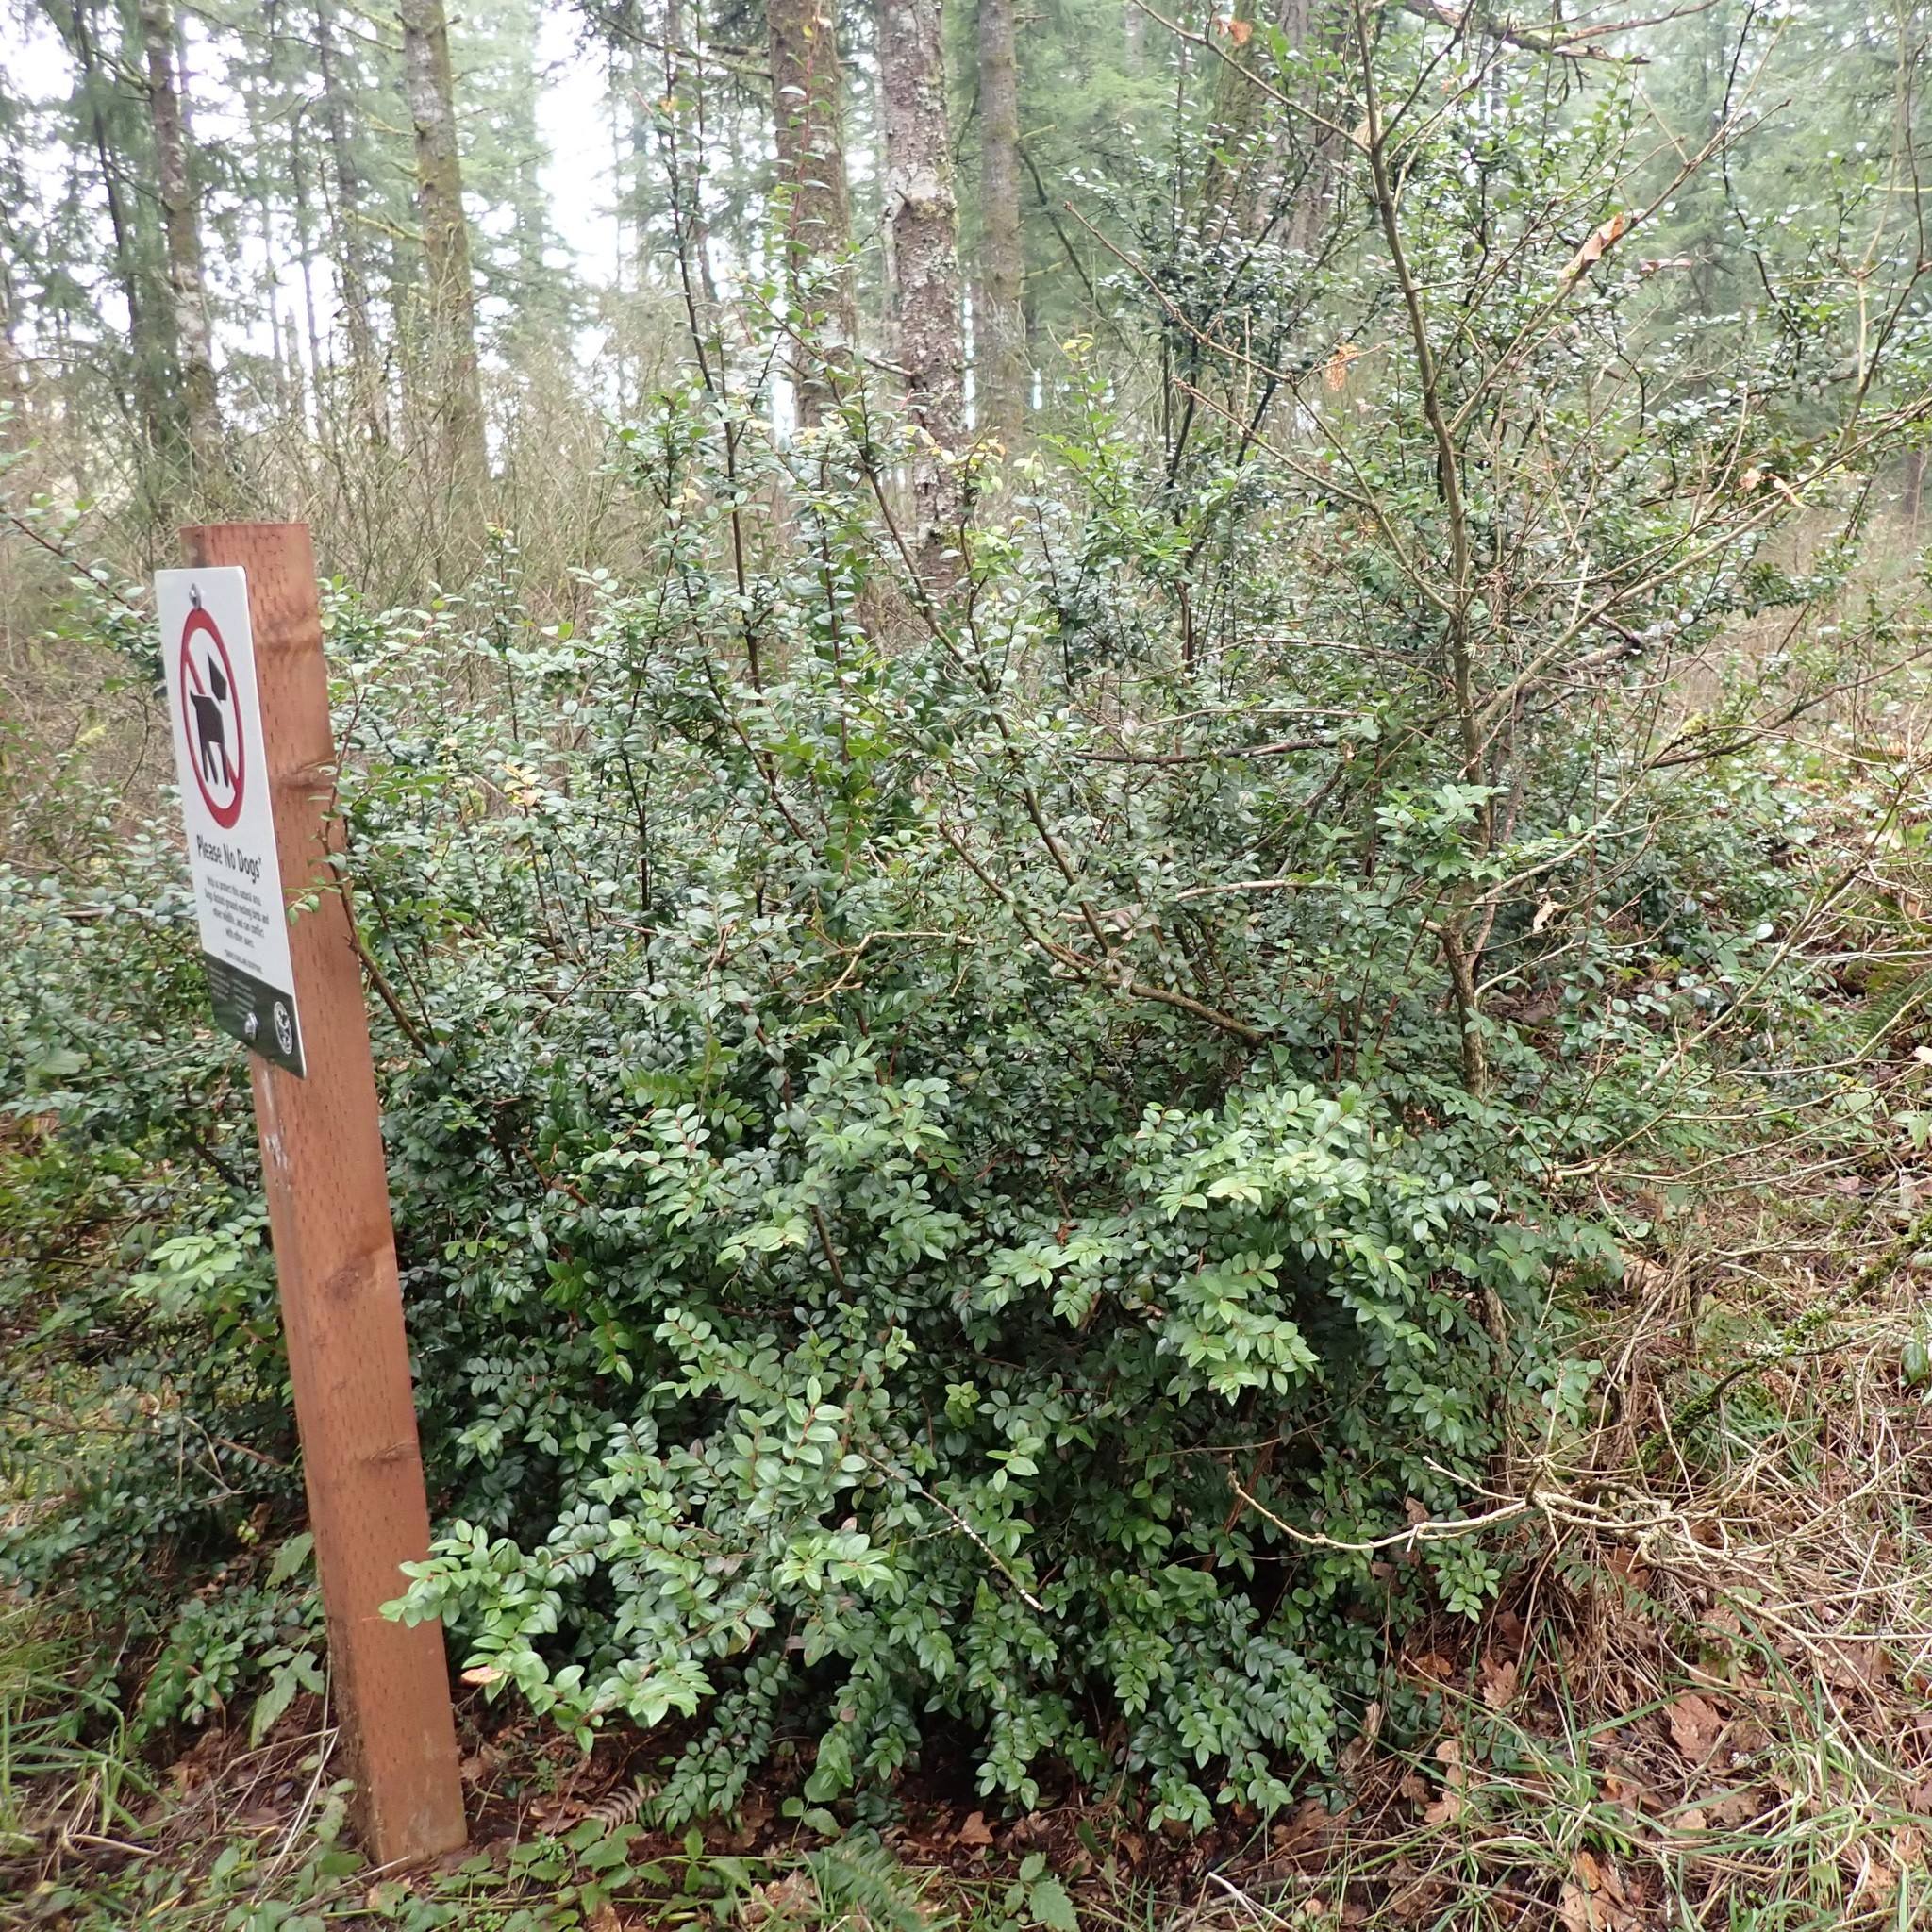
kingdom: Plantae
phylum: Tracheophyta
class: Magnoliopsida
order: Ericales
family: Ericaceae
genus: Vaccinium
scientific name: Vaccinium ovatum
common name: California-huckleberry
